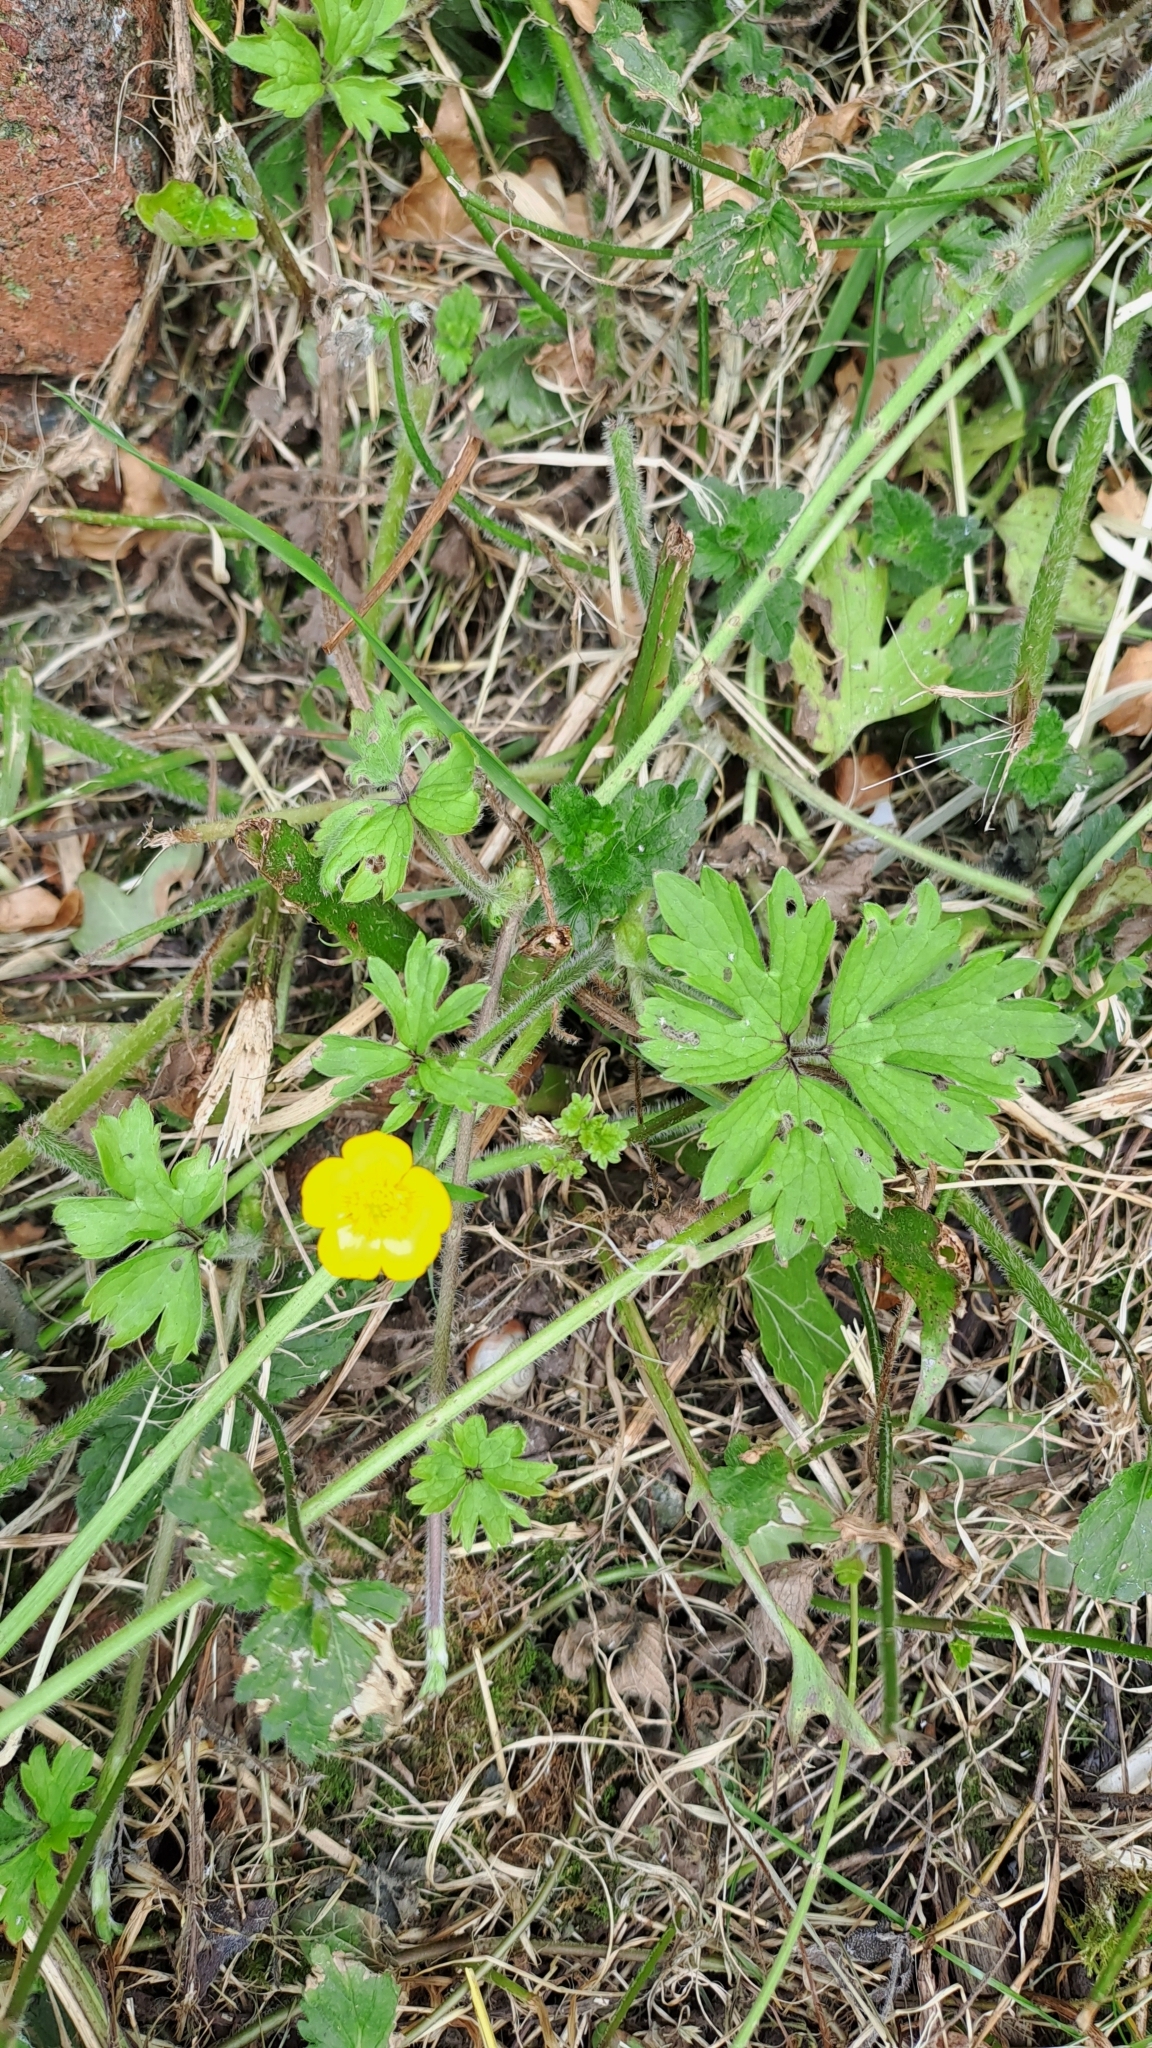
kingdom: Plantae
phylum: Tracheophyta
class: Magnoliopsida
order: Ranunculales
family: Ranunculaceae
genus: Ranunculus
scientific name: Ranunculus repens
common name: Creeping buttercup
